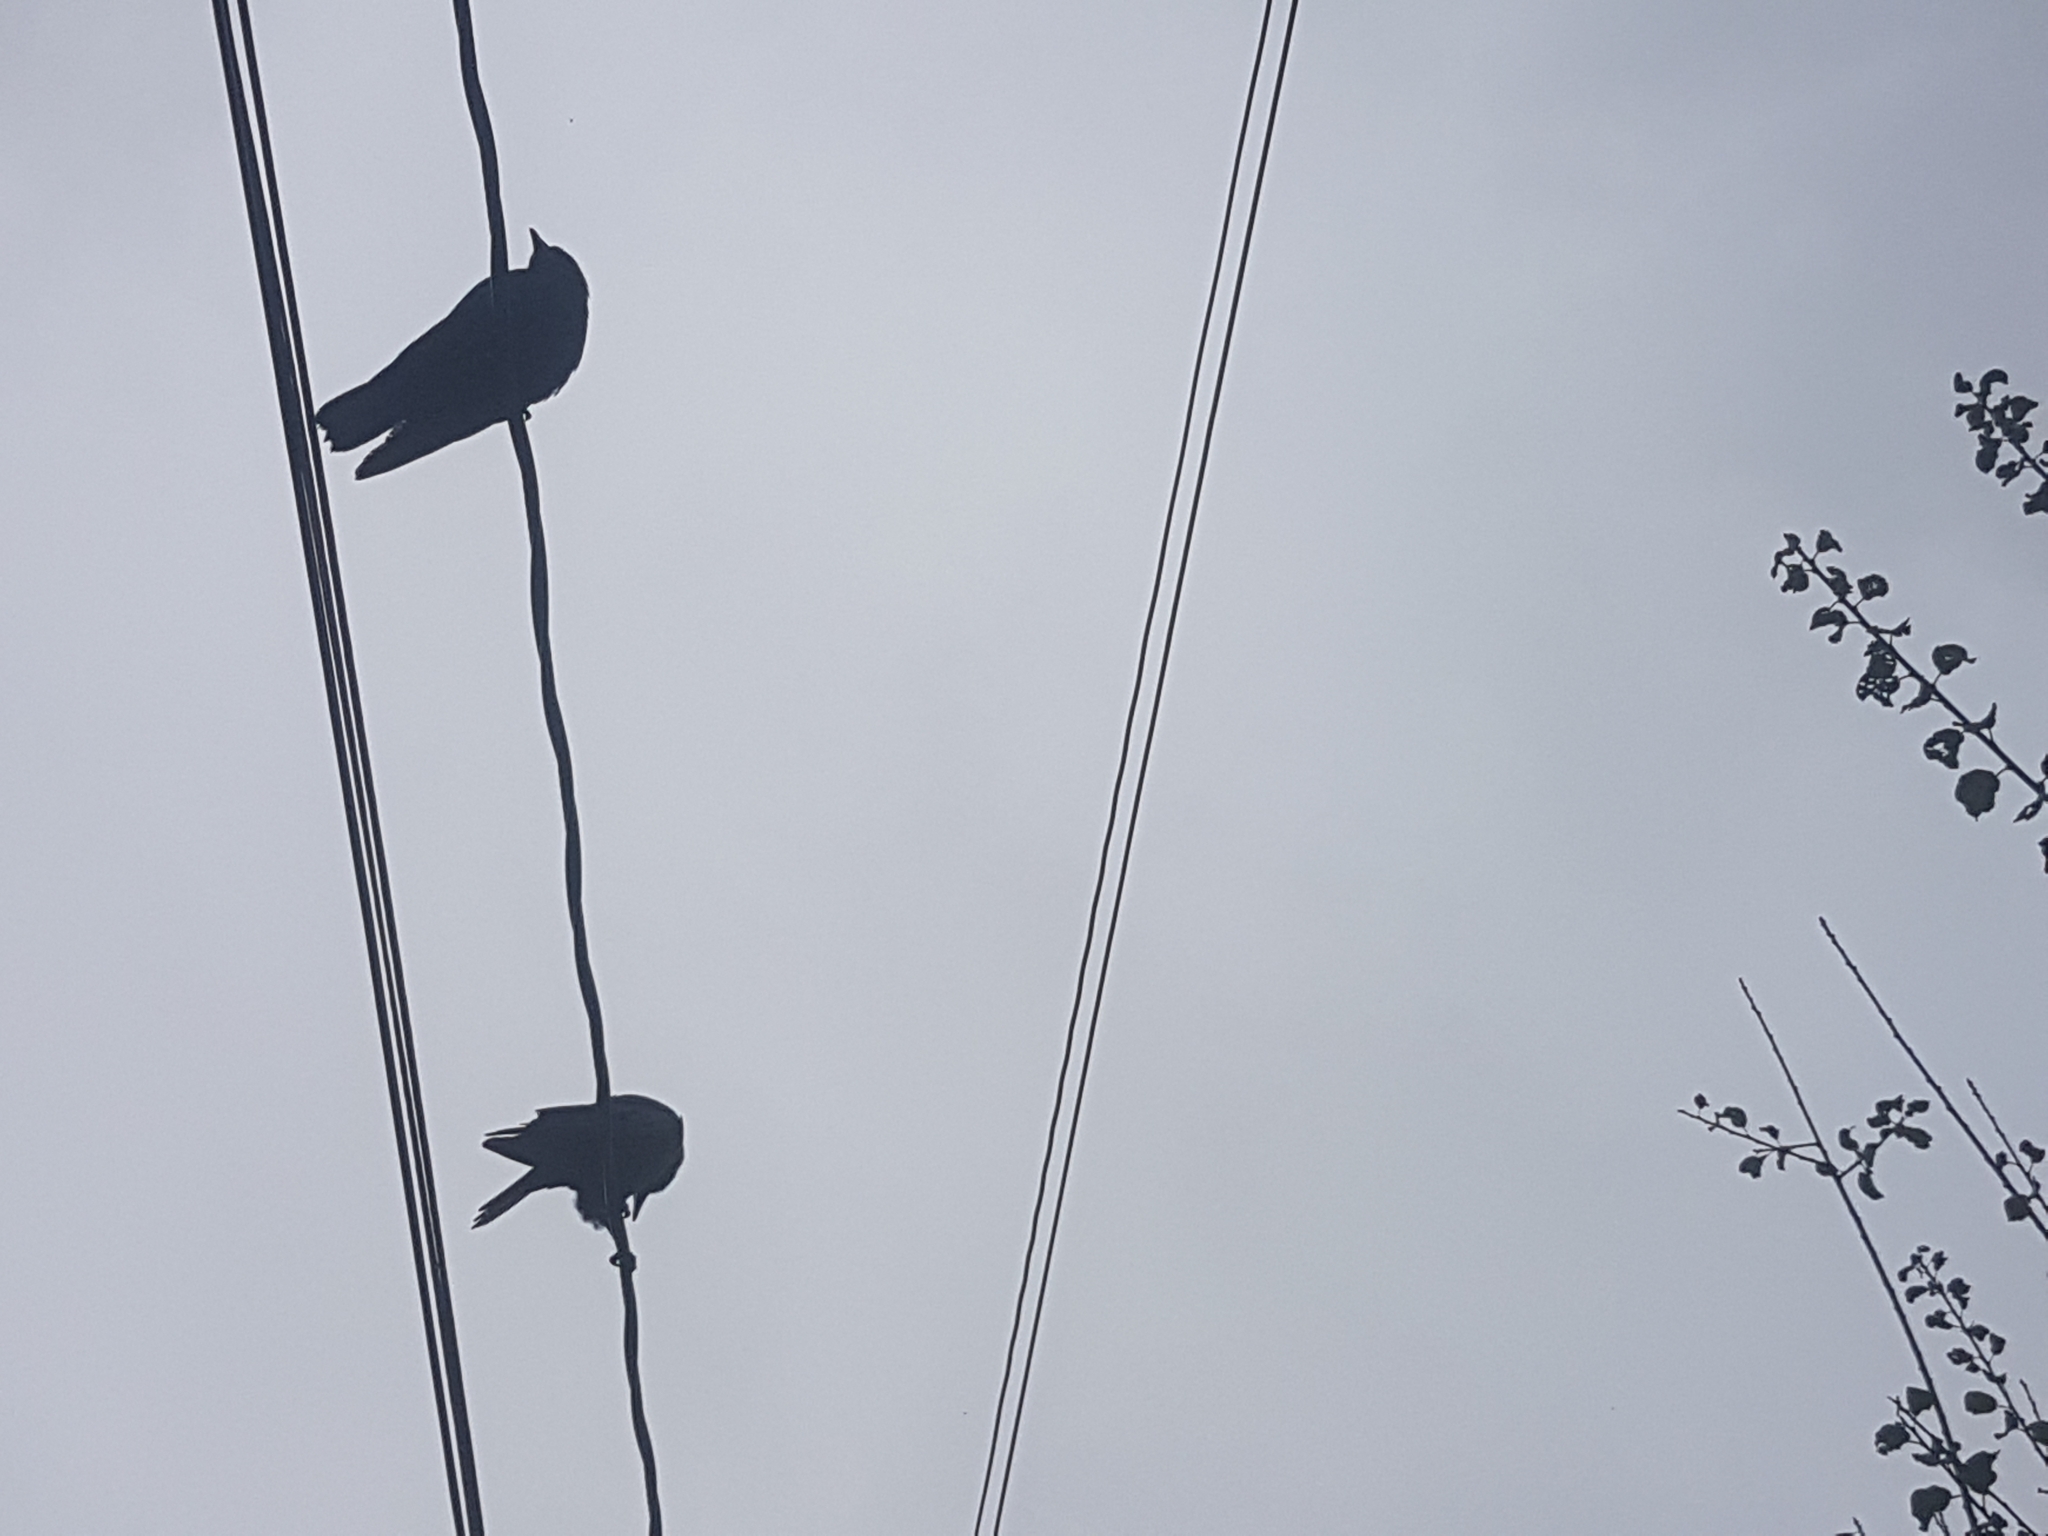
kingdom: Animalia
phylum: Chordata
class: Aves
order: Passeriformes
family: Corvidae
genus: Corvus
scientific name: Corvus brachyrhynchos
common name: American crow
